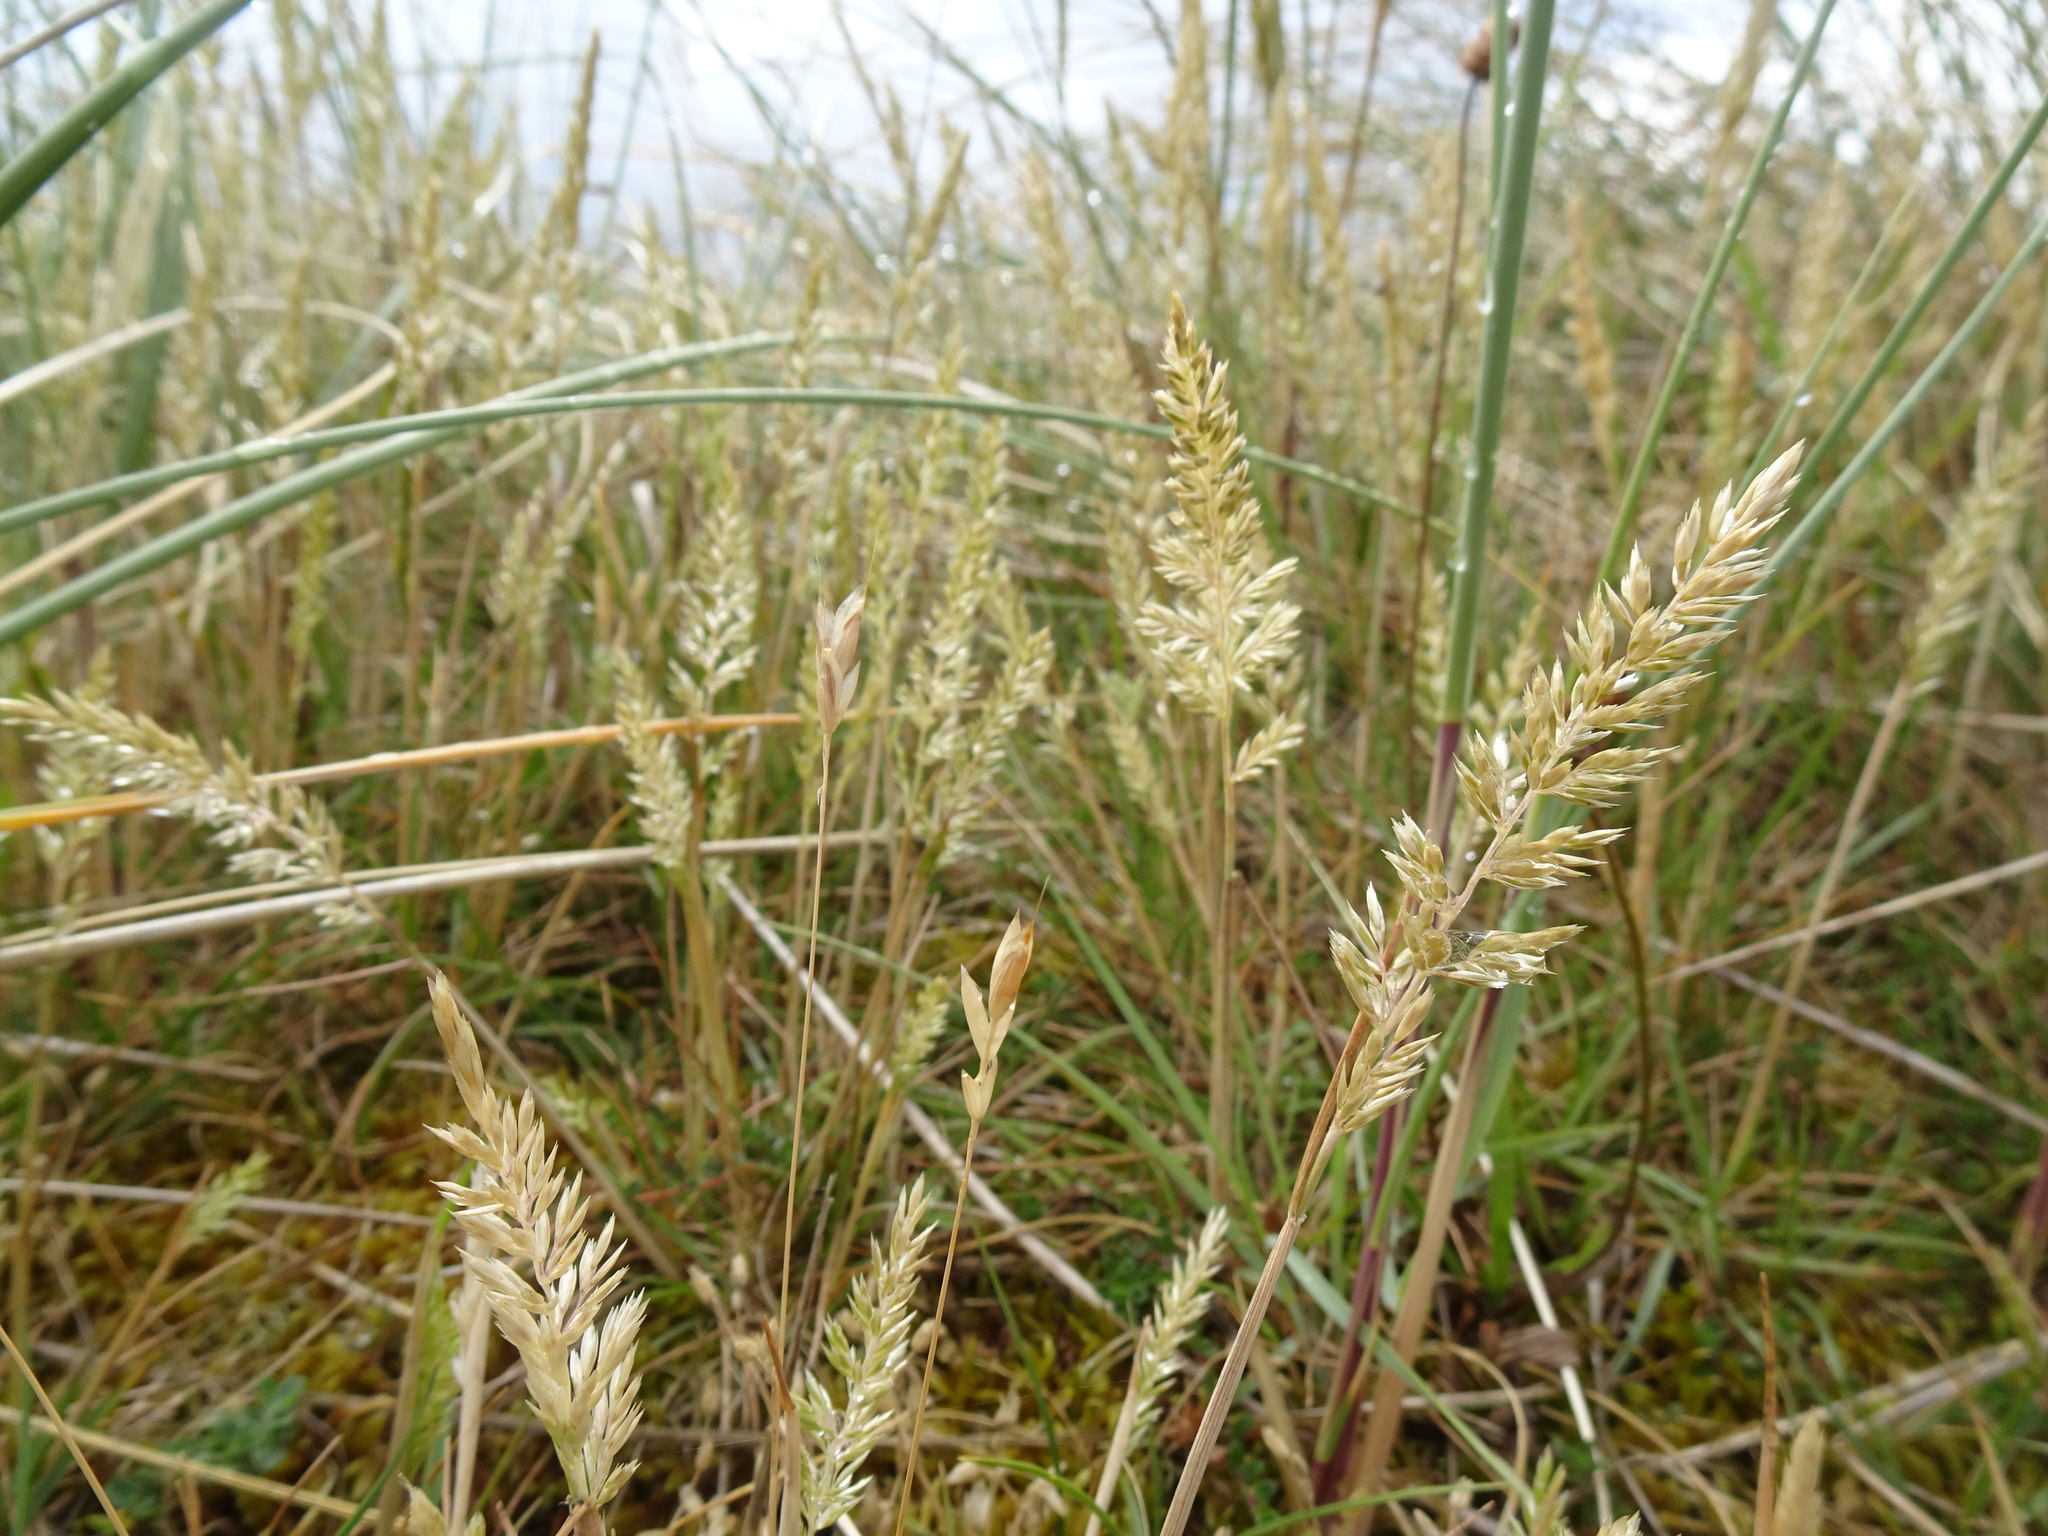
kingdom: Plantae
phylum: Tracheophyta
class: Liliopsida
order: Poales
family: Poaceae
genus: Koeleria
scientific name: Koeleria macrantha
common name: Crested hair-grass
